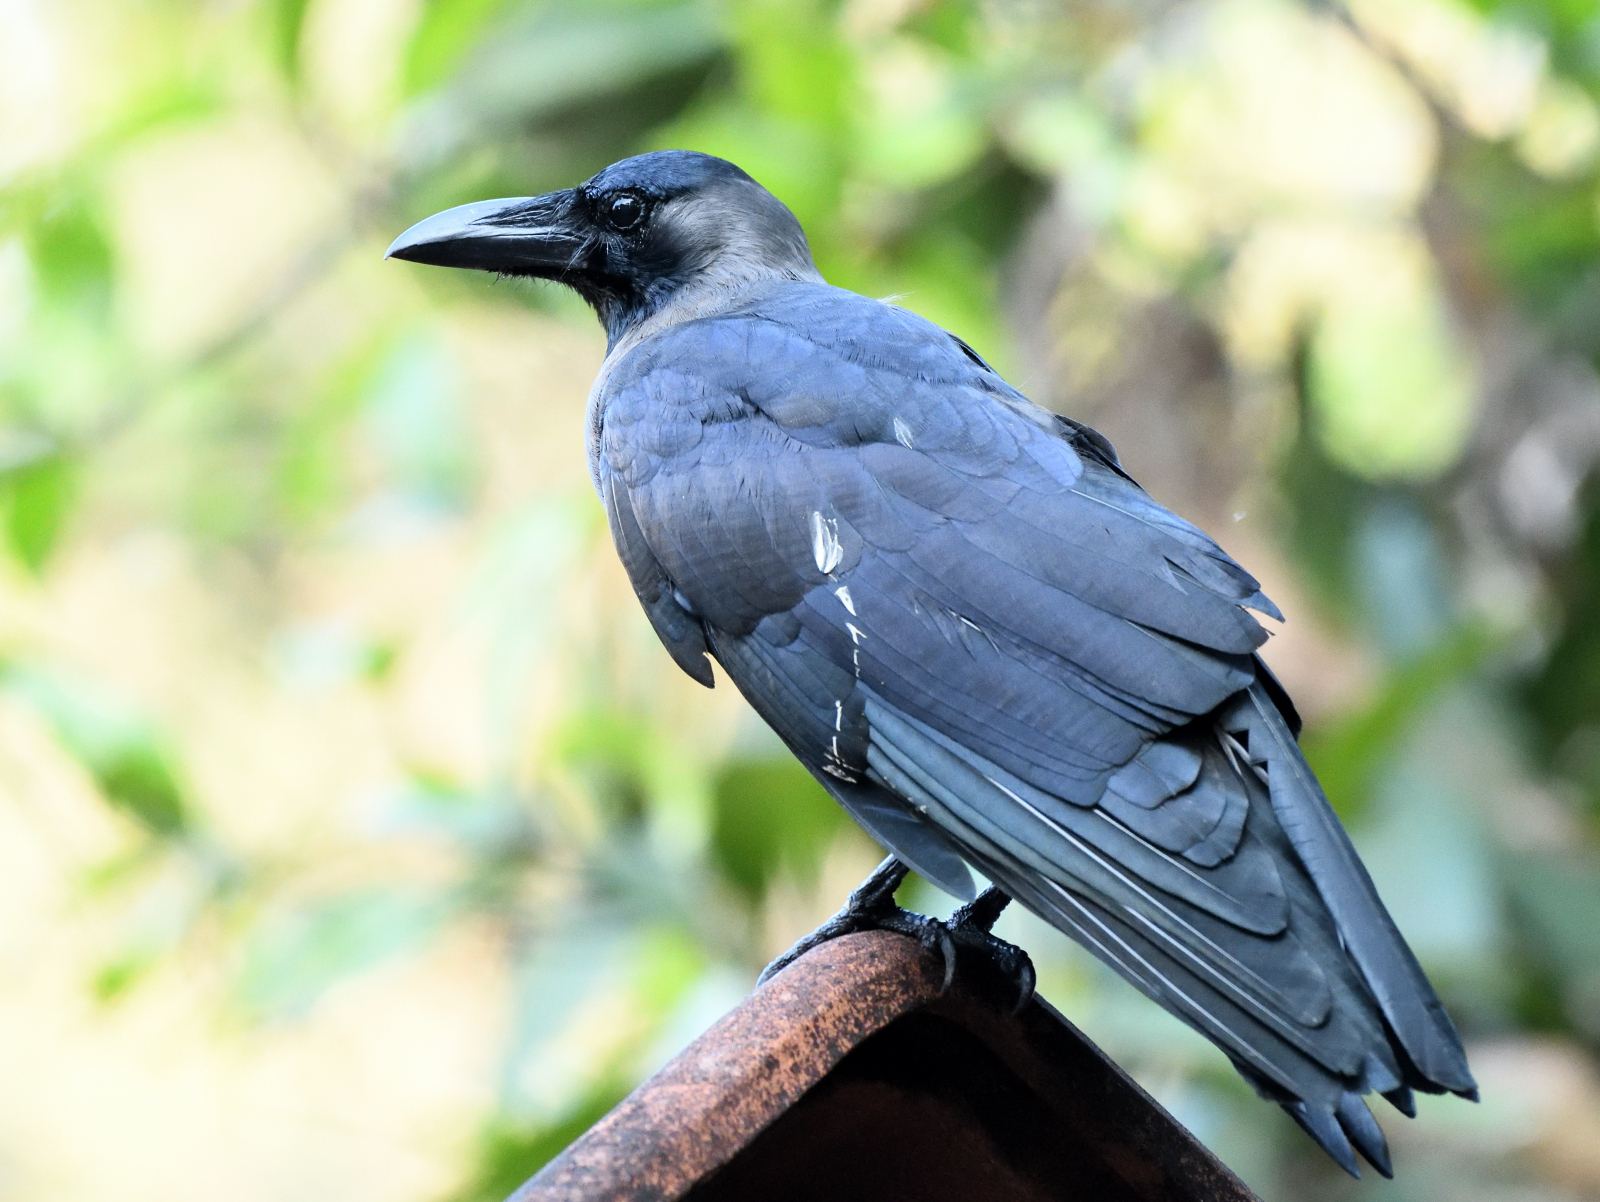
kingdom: Animalia
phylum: Chordata
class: Aves
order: Passeriformes
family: Corvidae
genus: Corvus
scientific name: Corvus macrorhynchos
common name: Large-billed crow
